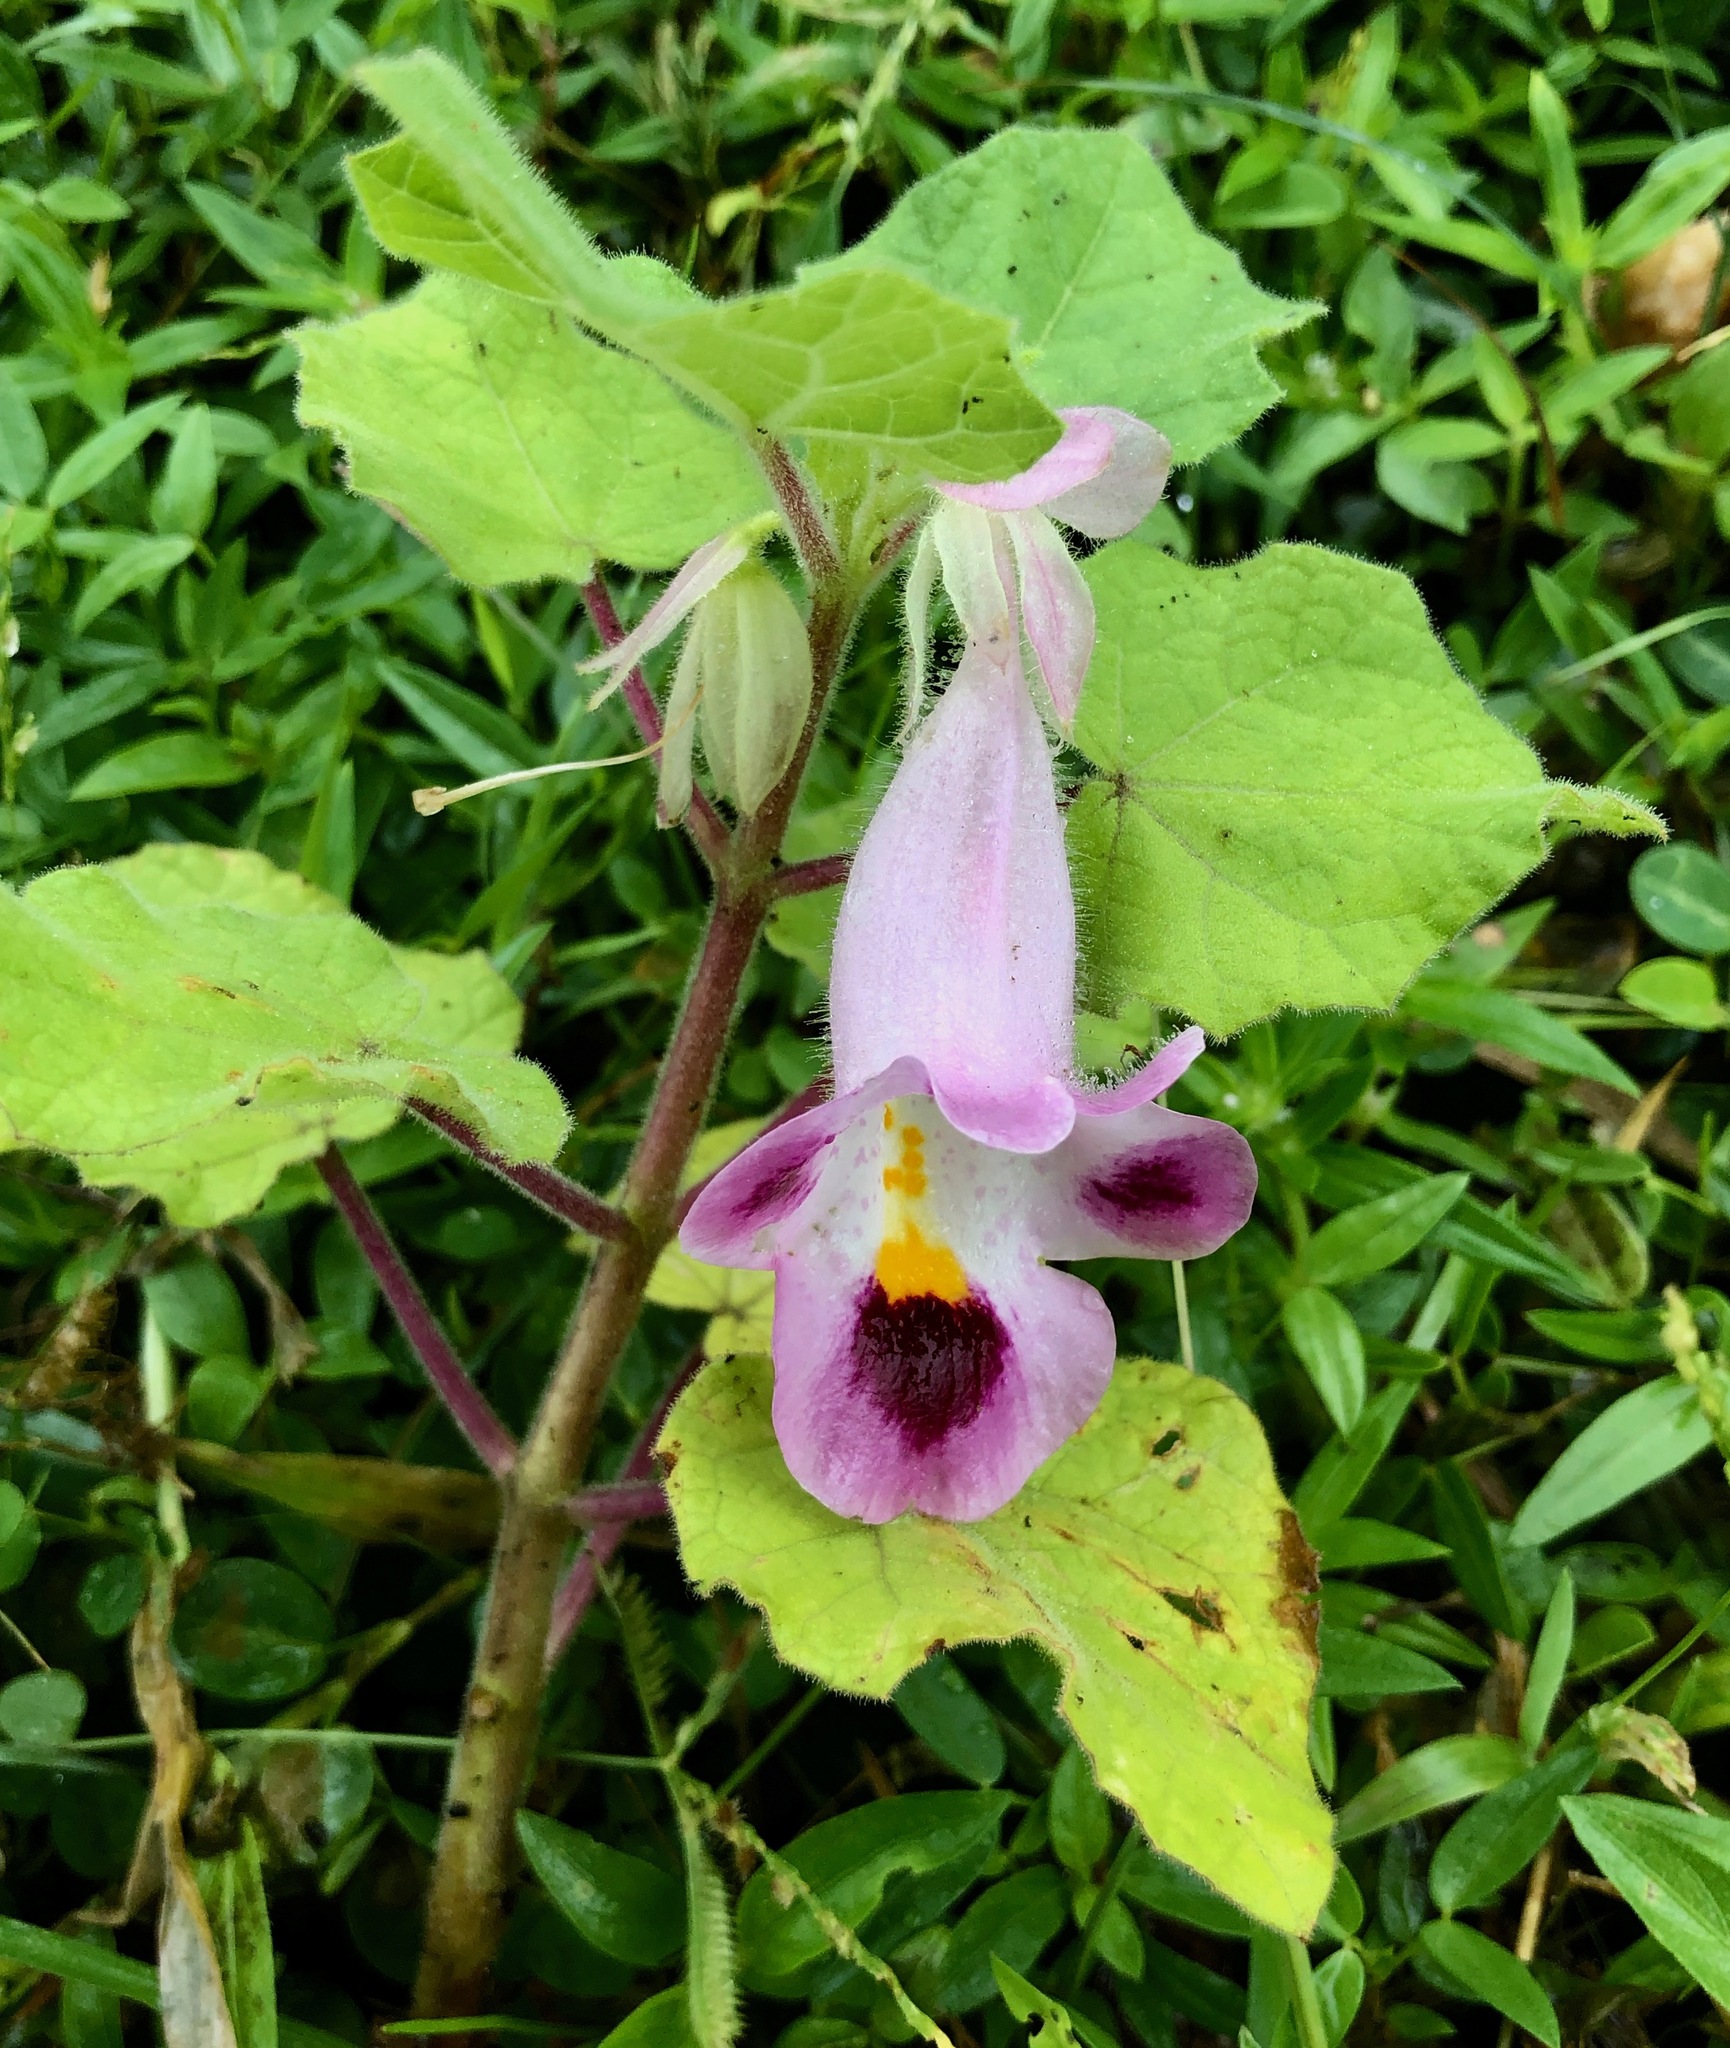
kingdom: Plantae
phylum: Tracheophyta
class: Magnoliopsida
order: Lamiales
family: Martyniaceae
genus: Martynia
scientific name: Martynia annua
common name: Tiger's-claw
